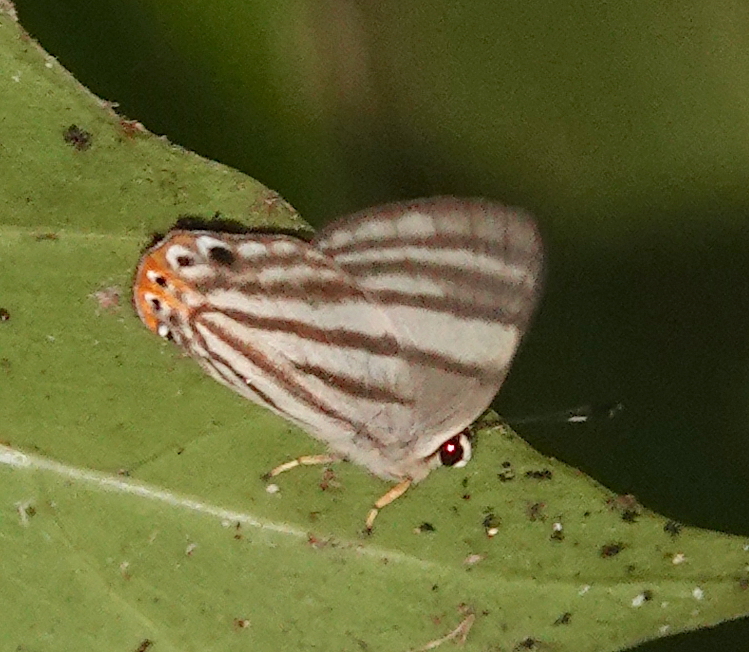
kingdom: Animalia
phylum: Arthropoda
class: Insecta
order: Lepidoptera
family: Riodinidae
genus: Pelolasia
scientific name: Pelolasia
